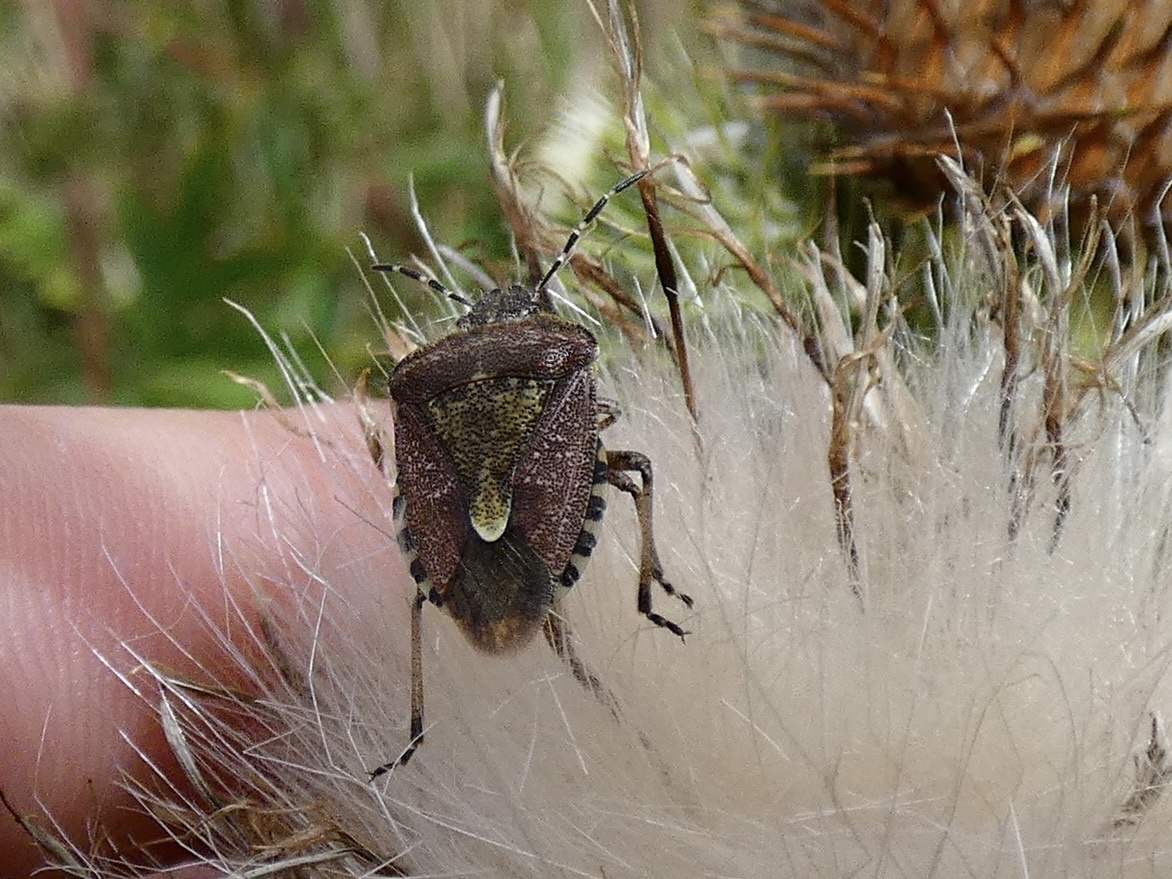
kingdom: Animalia
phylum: Arthropoda
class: Insecta
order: Hemiptera
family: Pentatomidae
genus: Dolycoris
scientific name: Dolycoris baccarum
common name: Sloe bug
